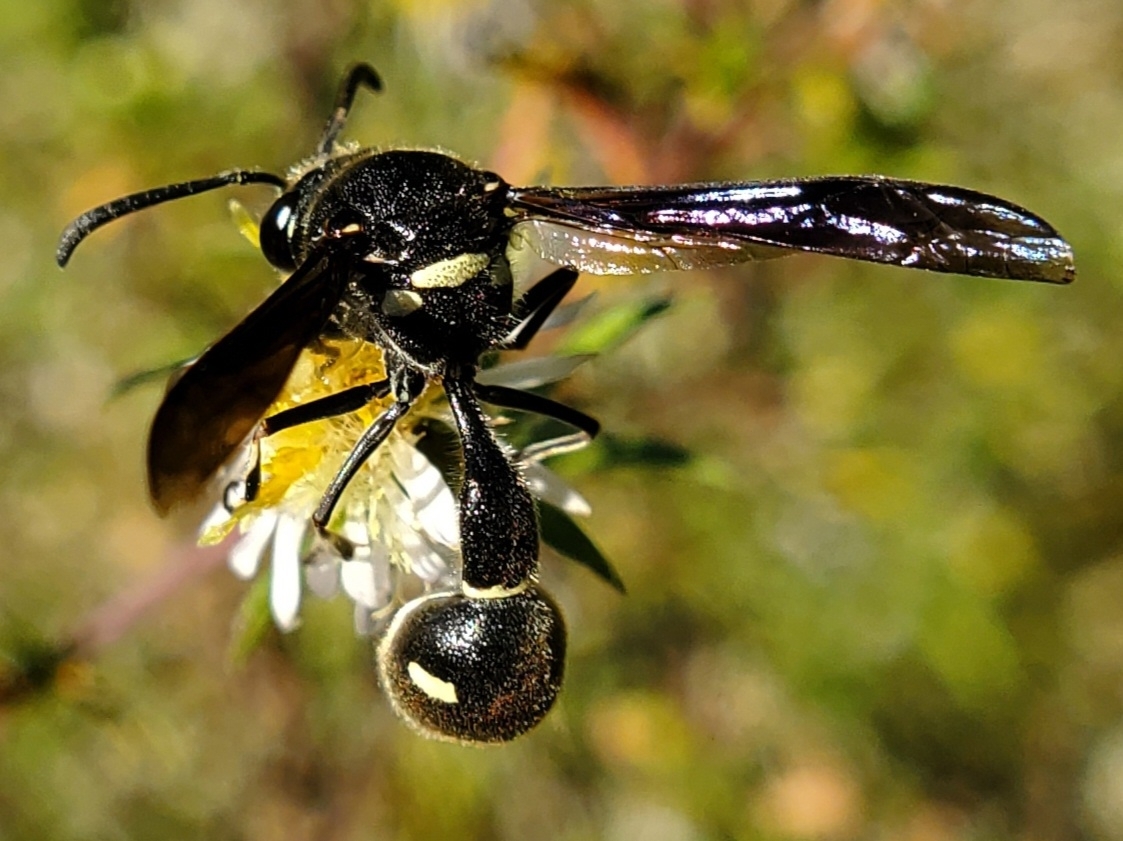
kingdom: Animalia
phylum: Arthropoda
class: Insecta
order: Hymenoptera
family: Vespidae
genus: Eumenes
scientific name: Eumenes fraternus
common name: Fraternal potter wasp
